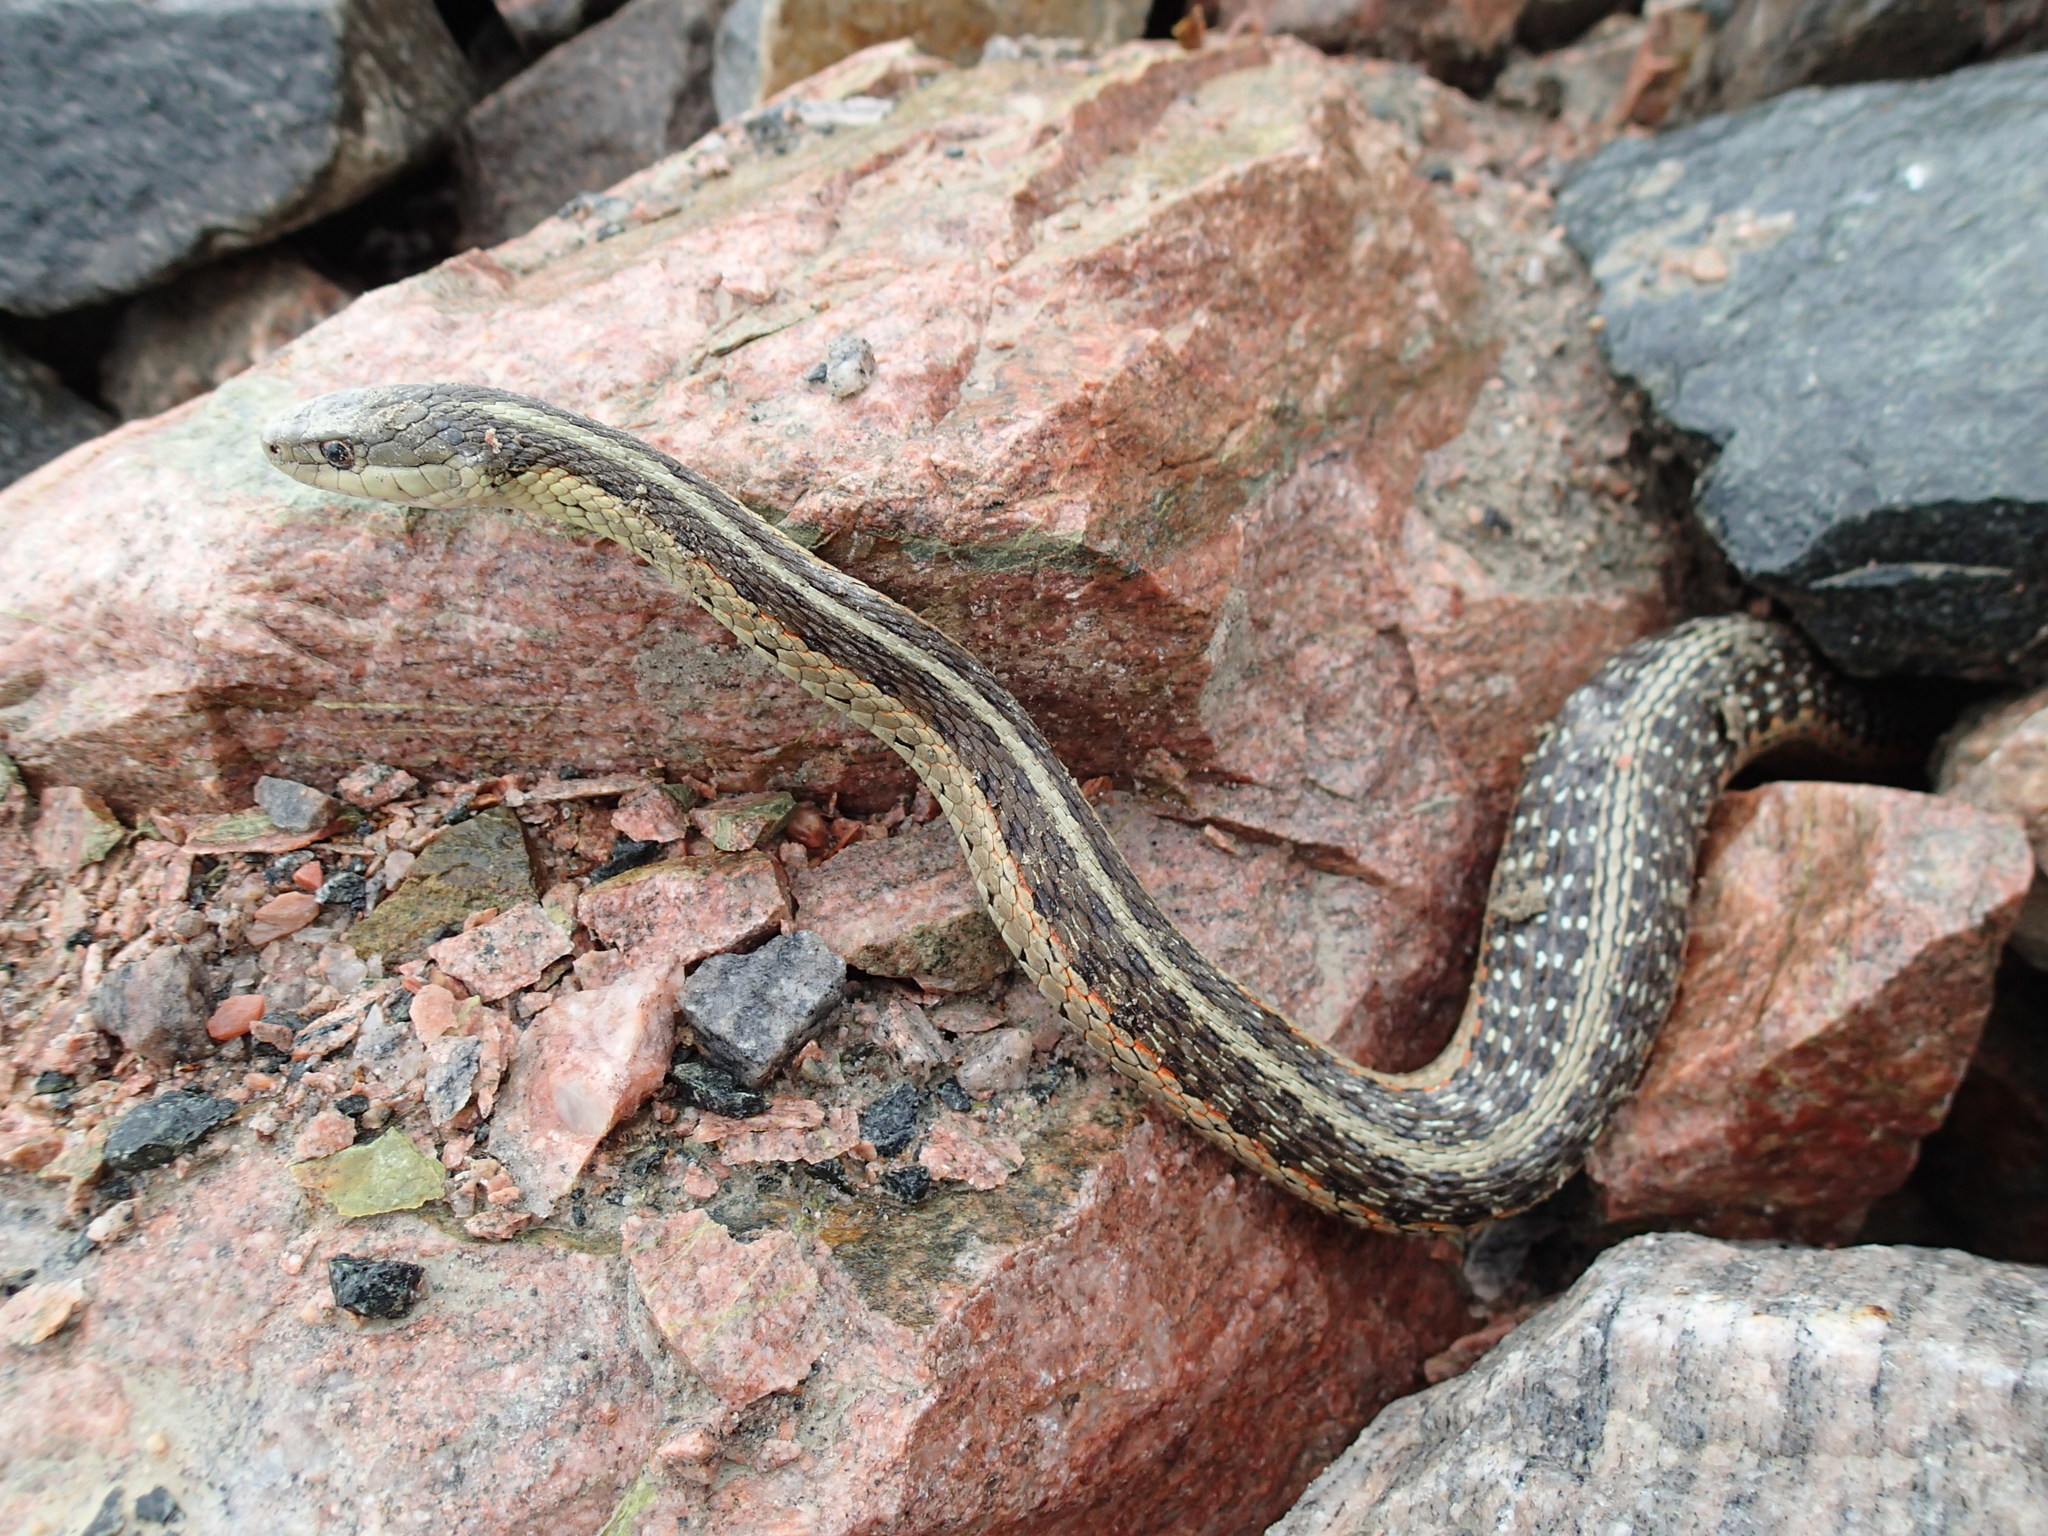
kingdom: Animalia
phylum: Chordata
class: Squamata
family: Colubridae
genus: Thamnophis
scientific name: Thamnophis sirtalis
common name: Common garter snake
